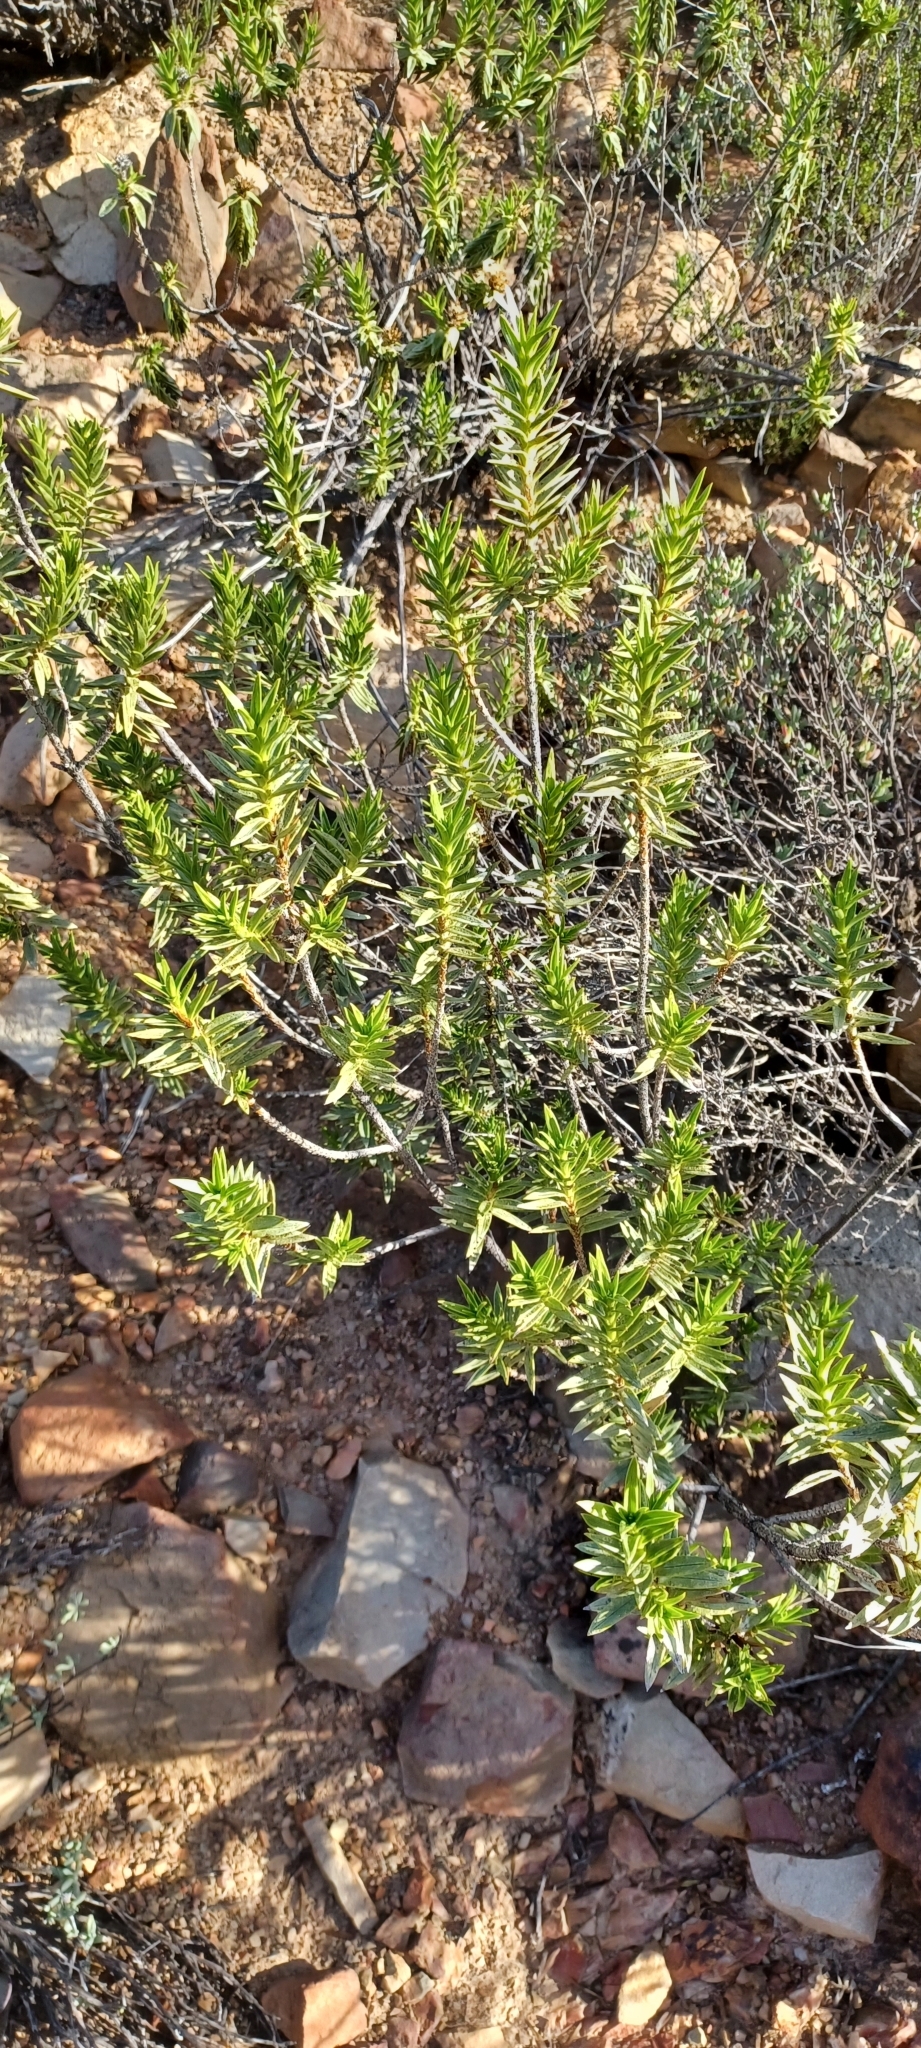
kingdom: Plantae
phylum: Tracheophyta
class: Magnoliopsida
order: Asterales
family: Asteraceae
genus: Pteronia
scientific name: Pteronia fasciculata
